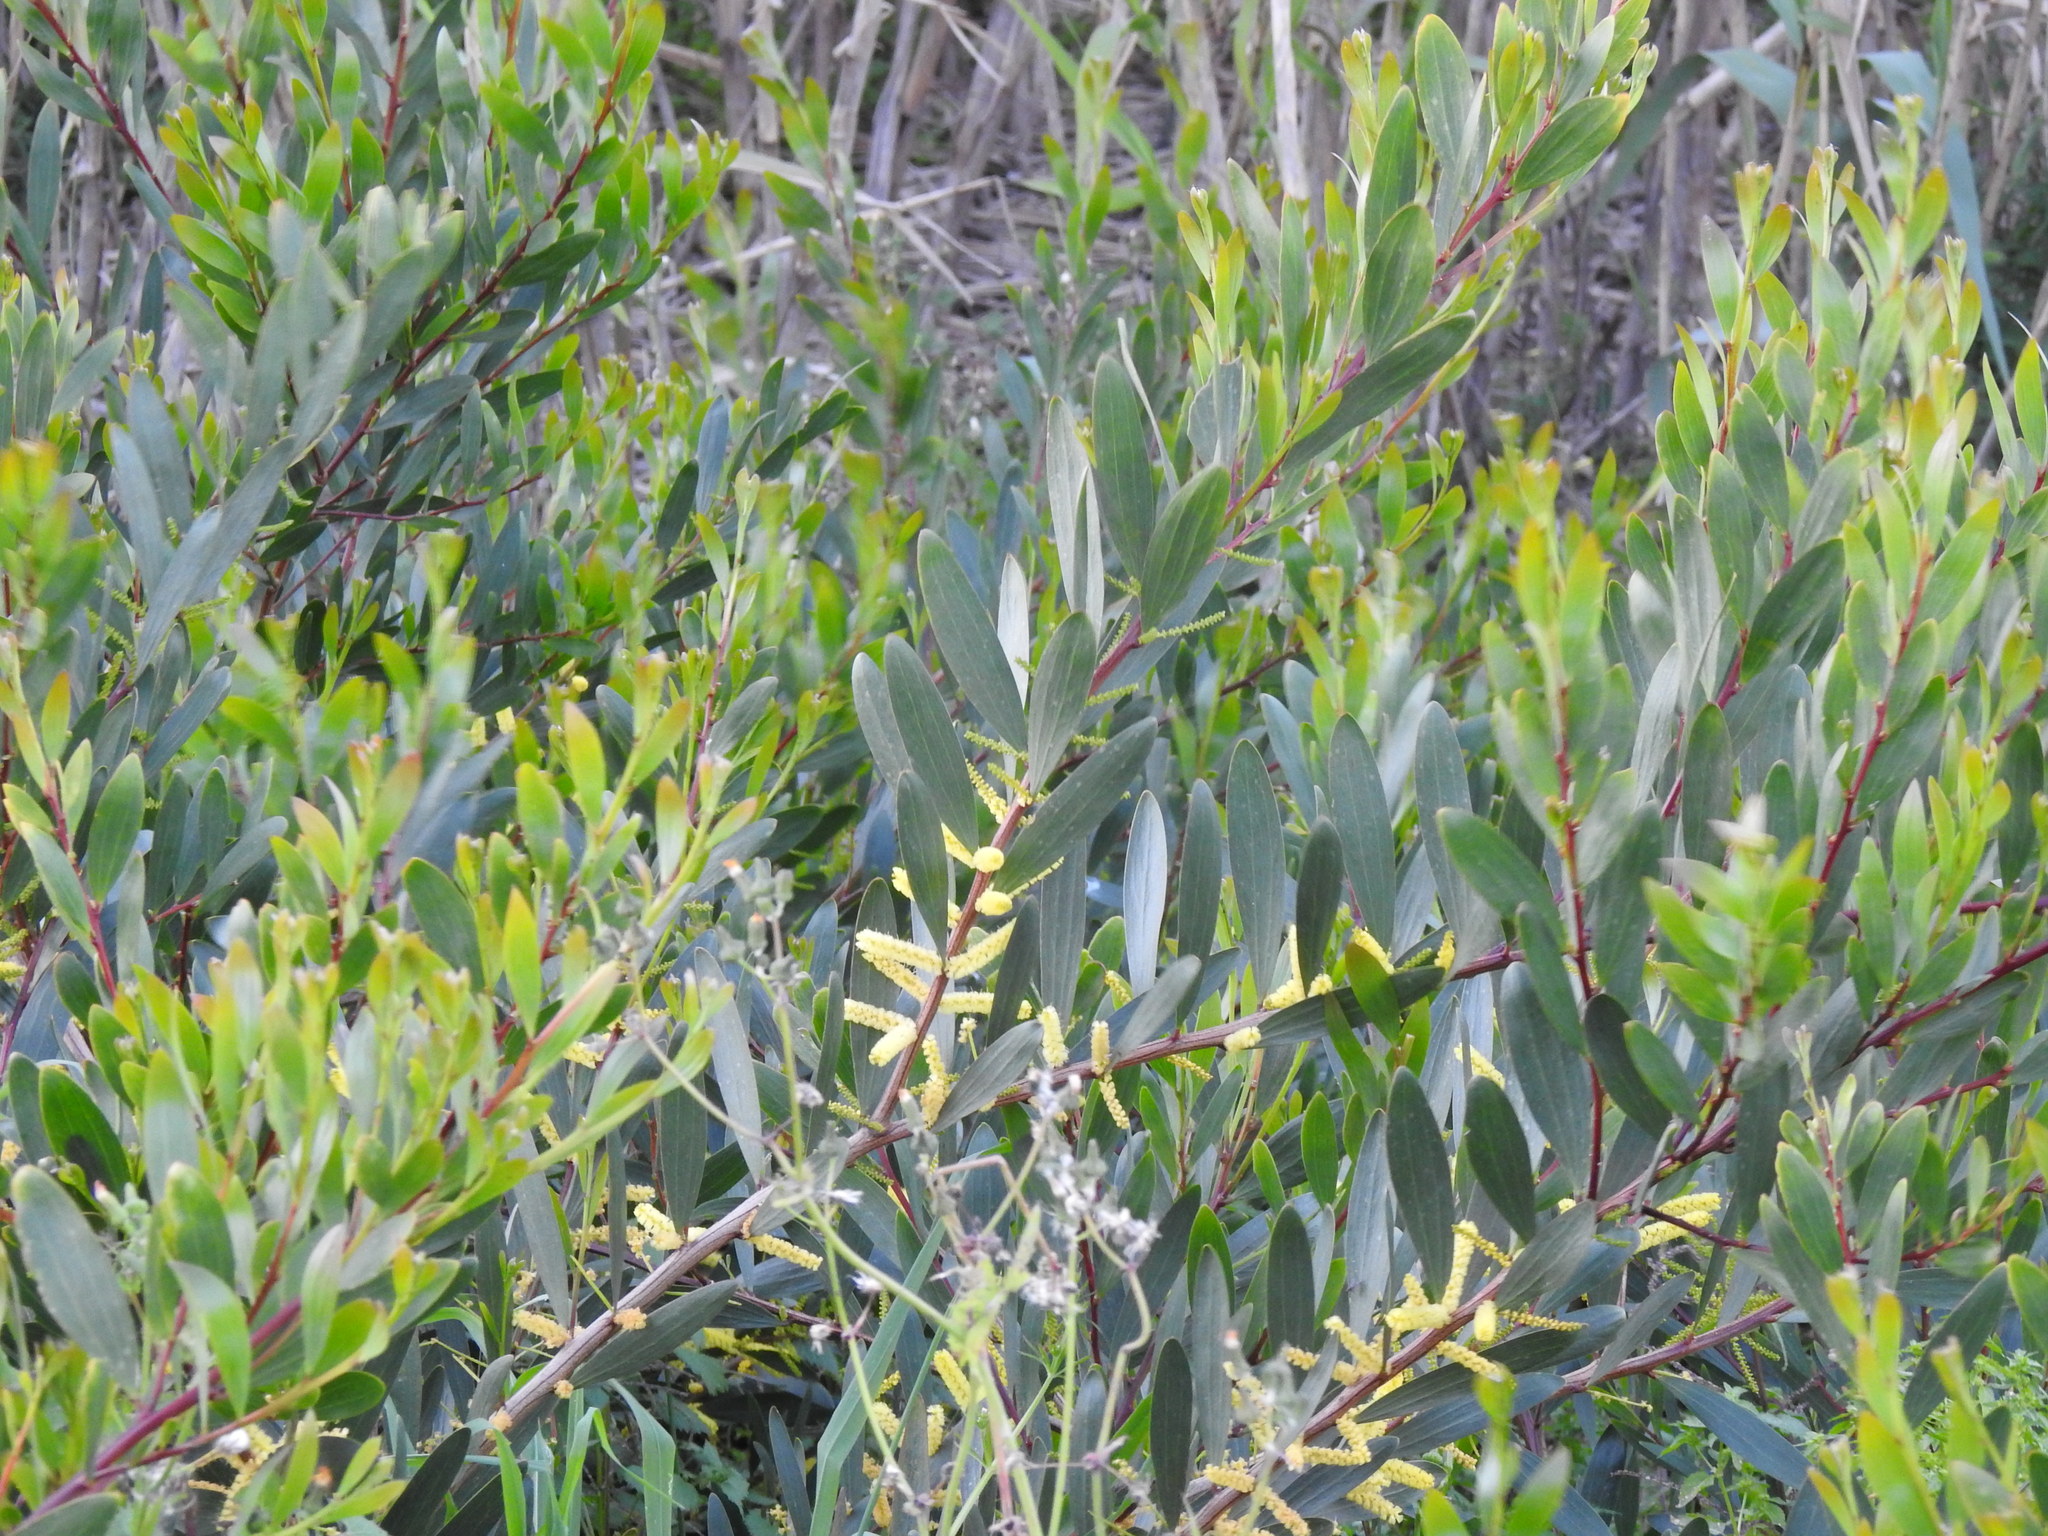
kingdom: Plantae
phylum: Tracheophyta
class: Magnoliopsida
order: Fabales
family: Fabaceae
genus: Acacia
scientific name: Acacia longifolia
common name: Sydney golden wattle
